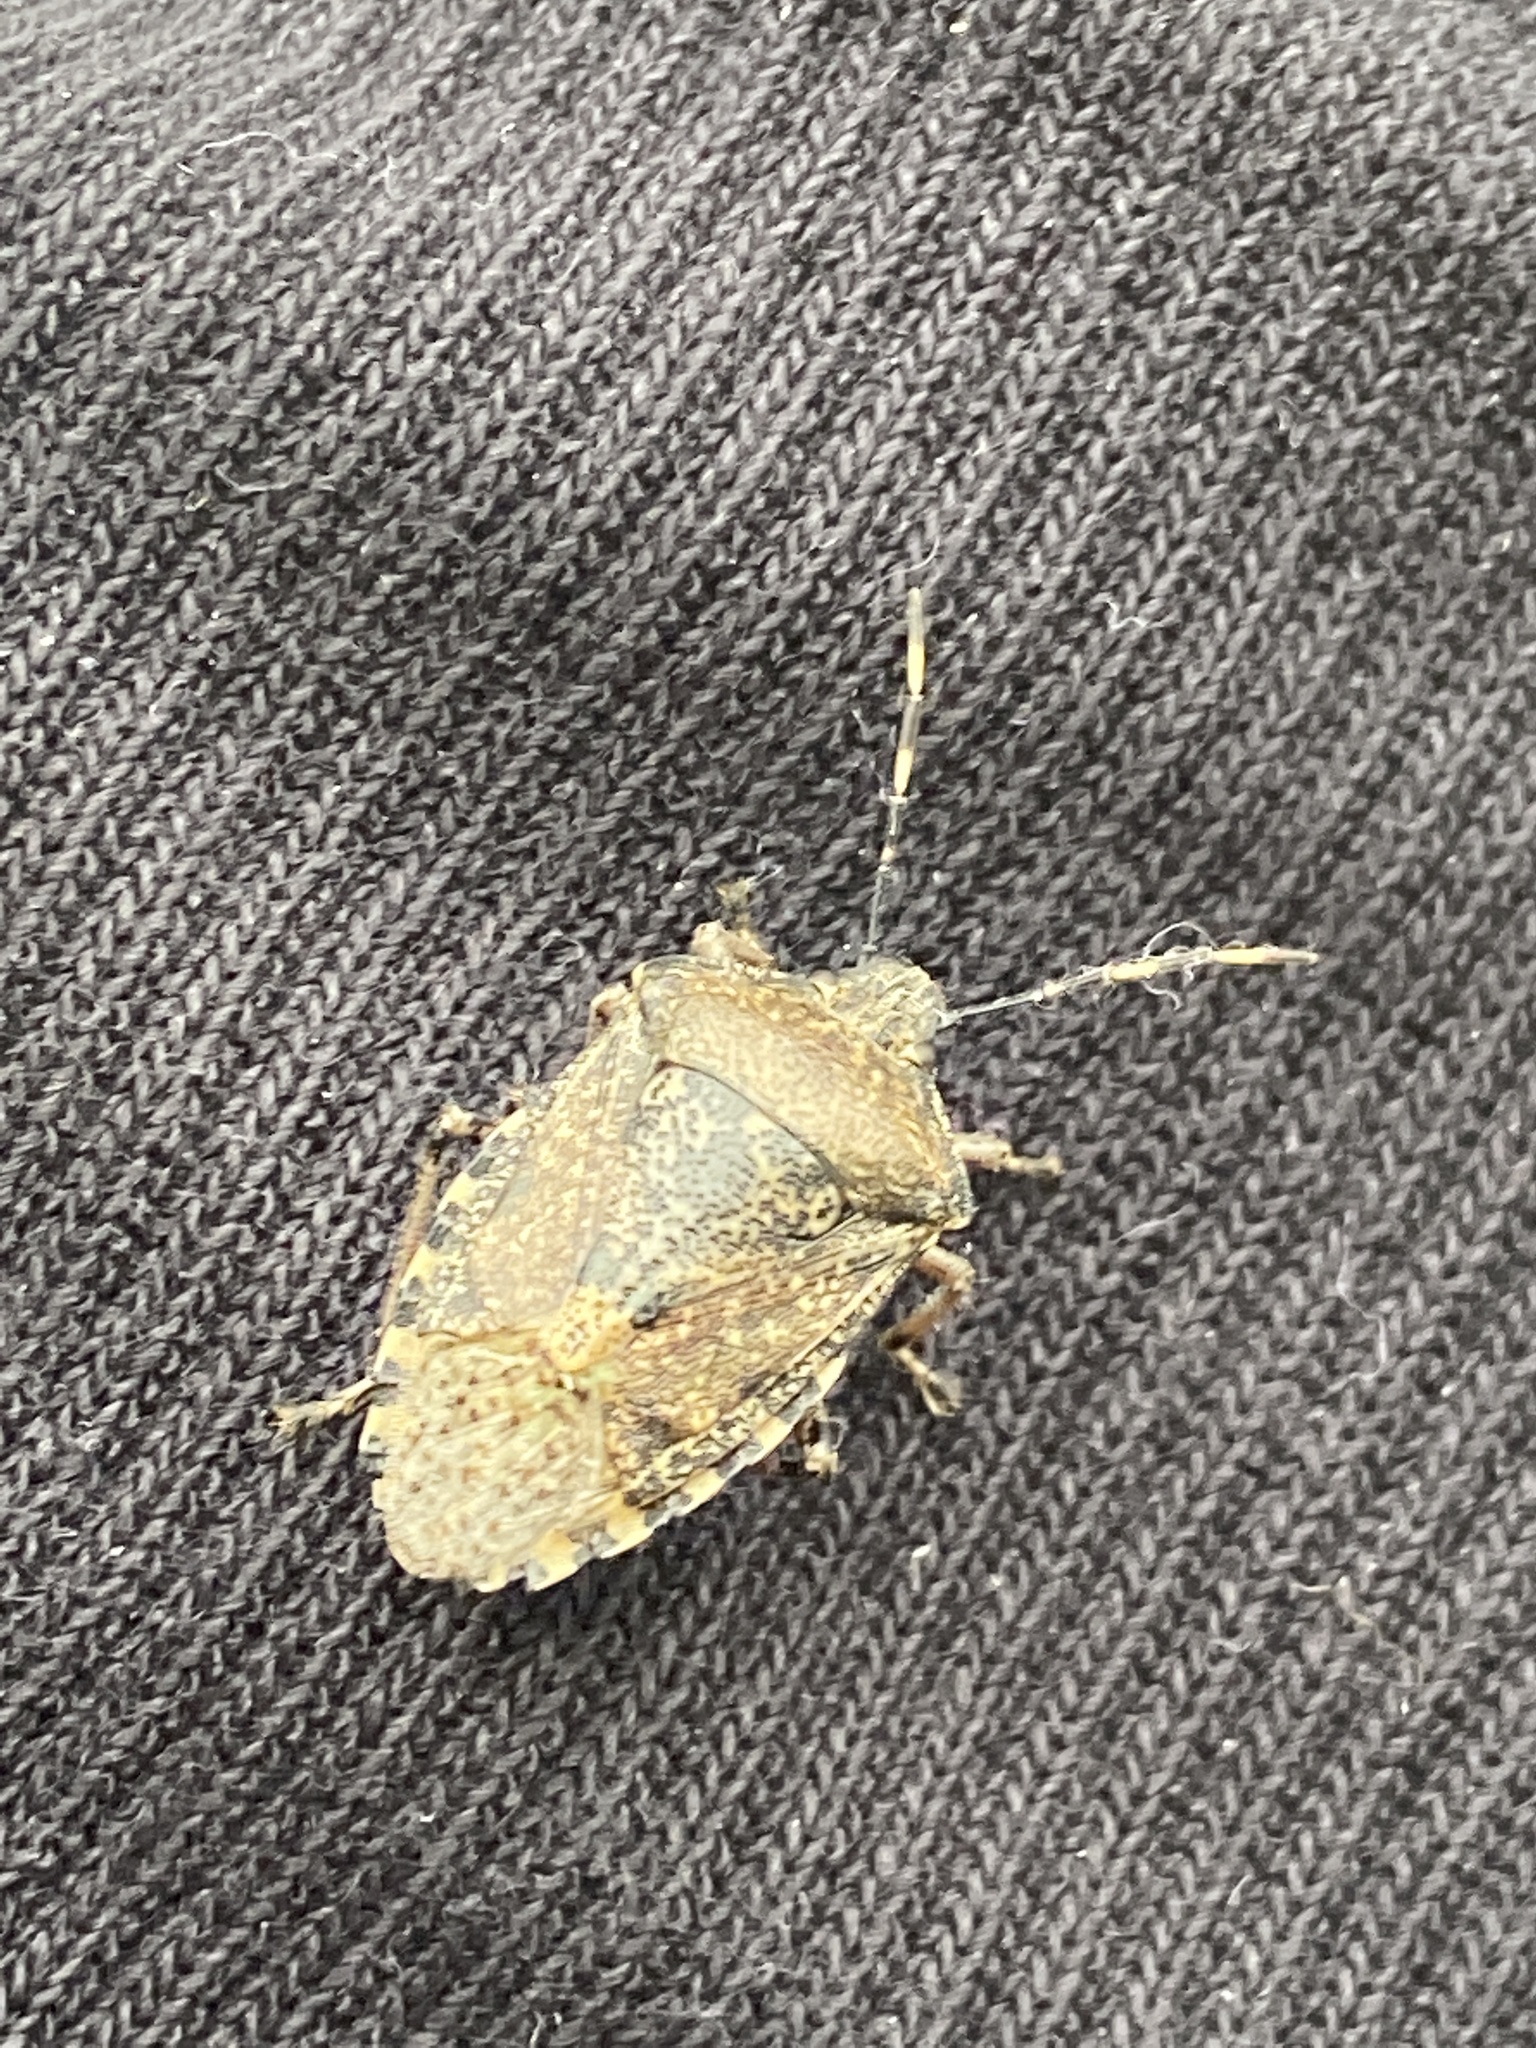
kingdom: Animalia
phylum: Arthropoda
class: Insecta
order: Hemiptera
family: Pentatomidae
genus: Rhaphigaster
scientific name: Rhaphigaster nebulosa
